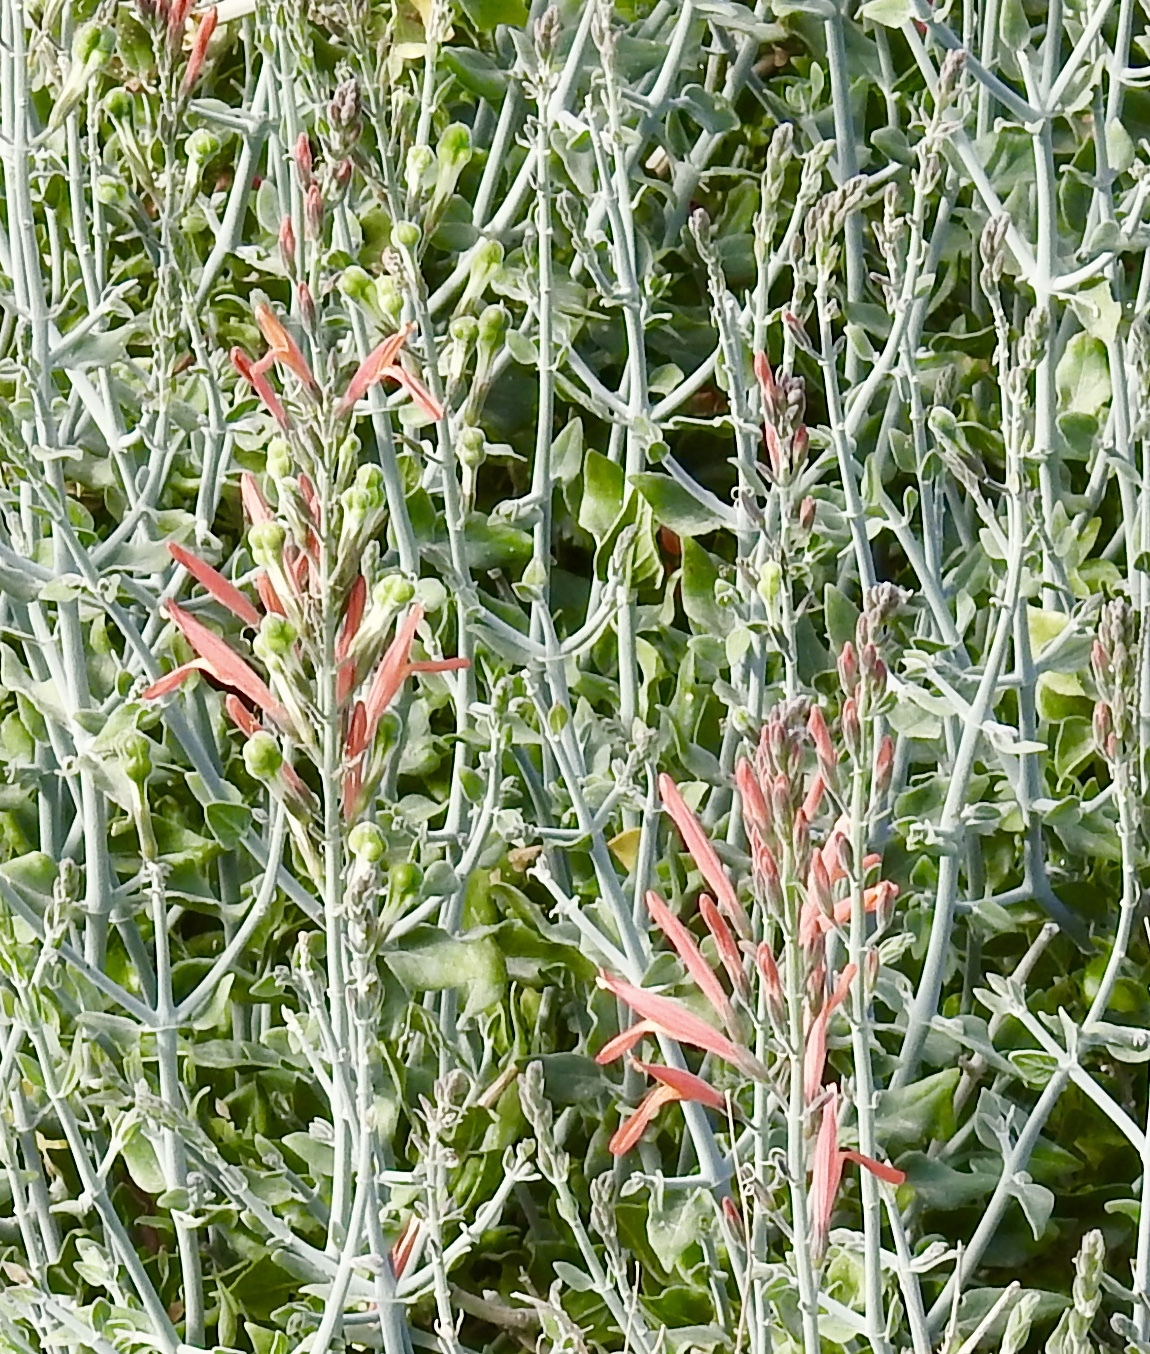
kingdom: Plantae
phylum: Tracheophyta
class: Magnoliopsida
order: Lamiales
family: Acanthaceae
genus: Justicia
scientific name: Justicia californica
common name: Chuparosa-honeysuckle
